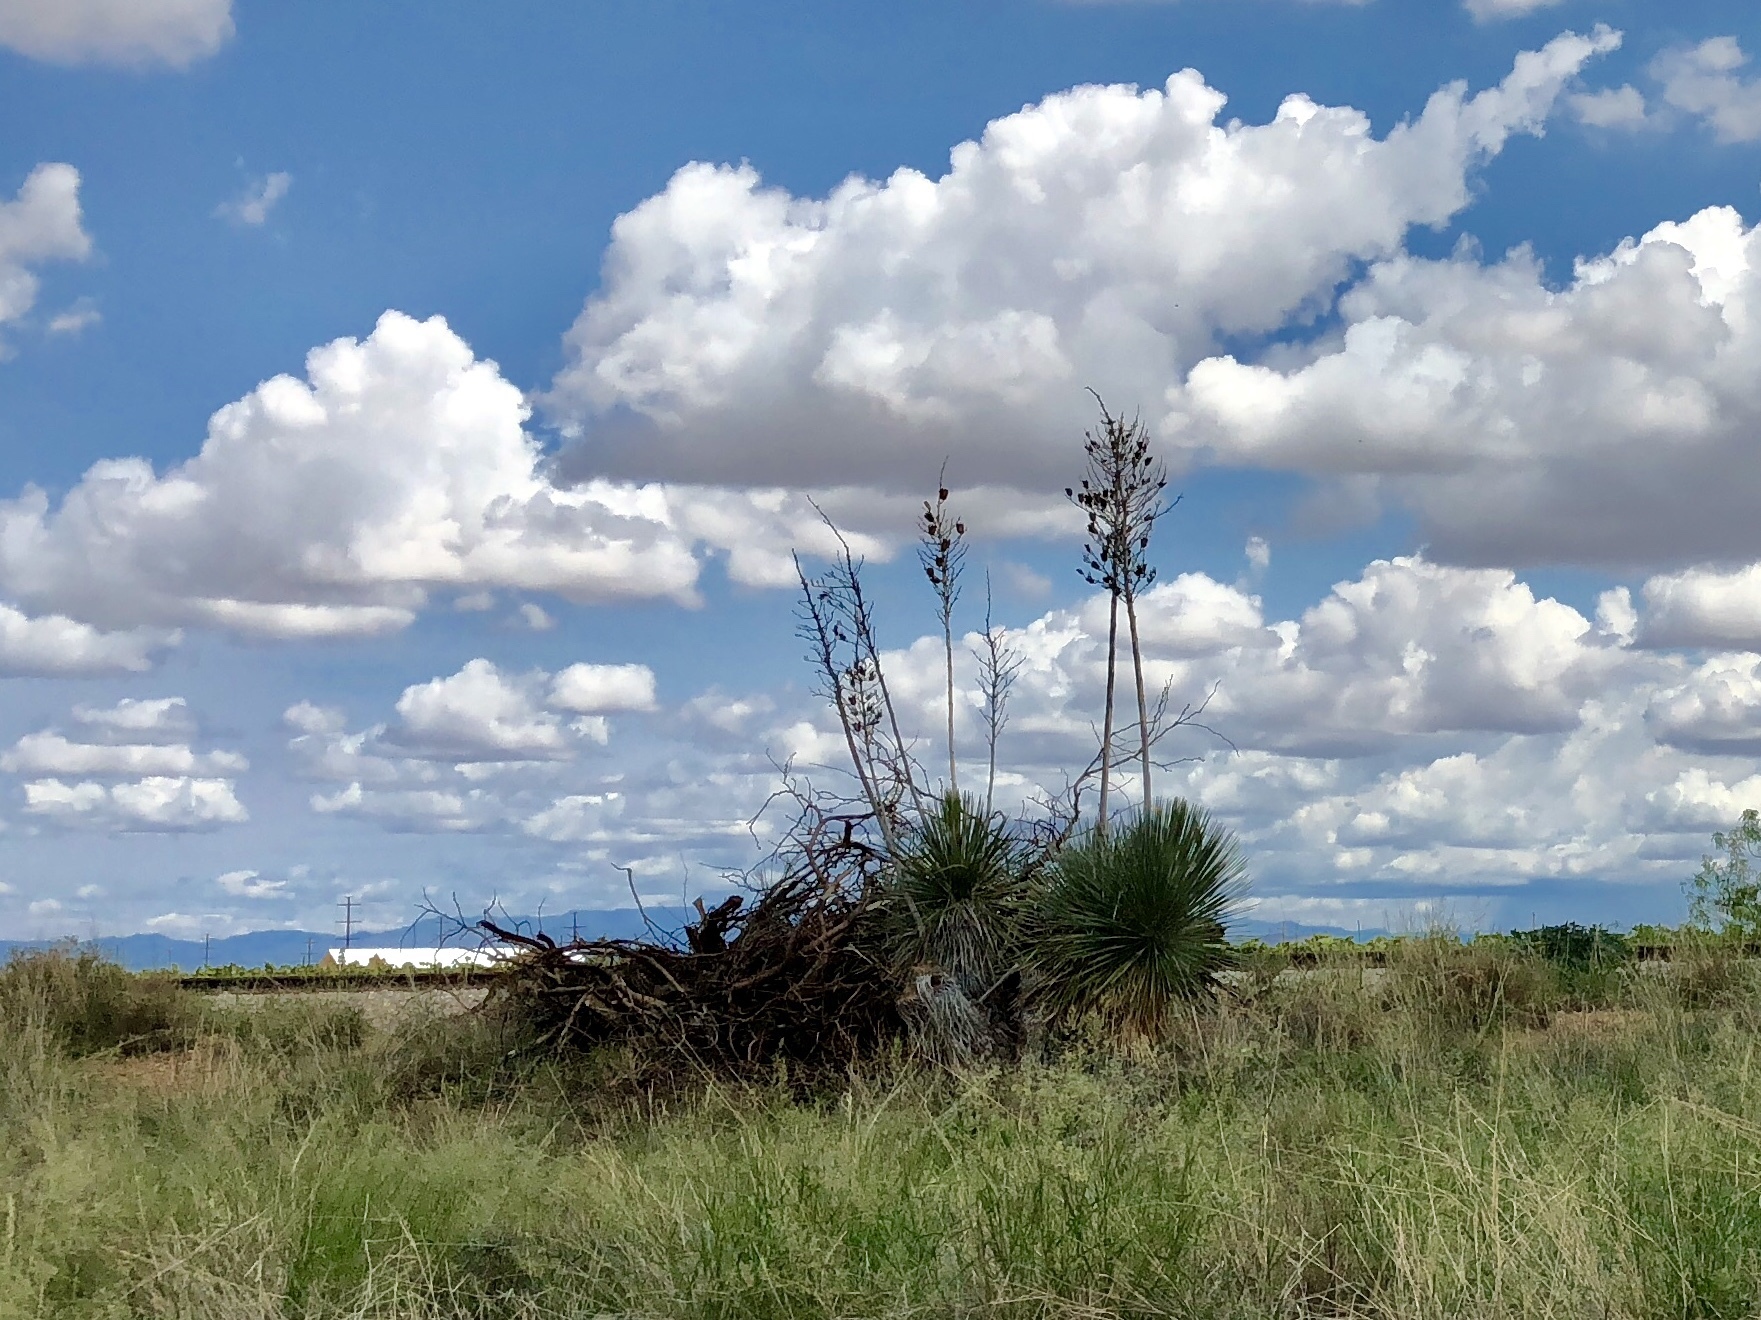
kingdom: Plantae
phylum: Tracheophyta
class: Liliopsida
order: Asparagales
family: Asparagaceae
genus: Yucca
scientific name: Yucca elata
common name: Palmella
